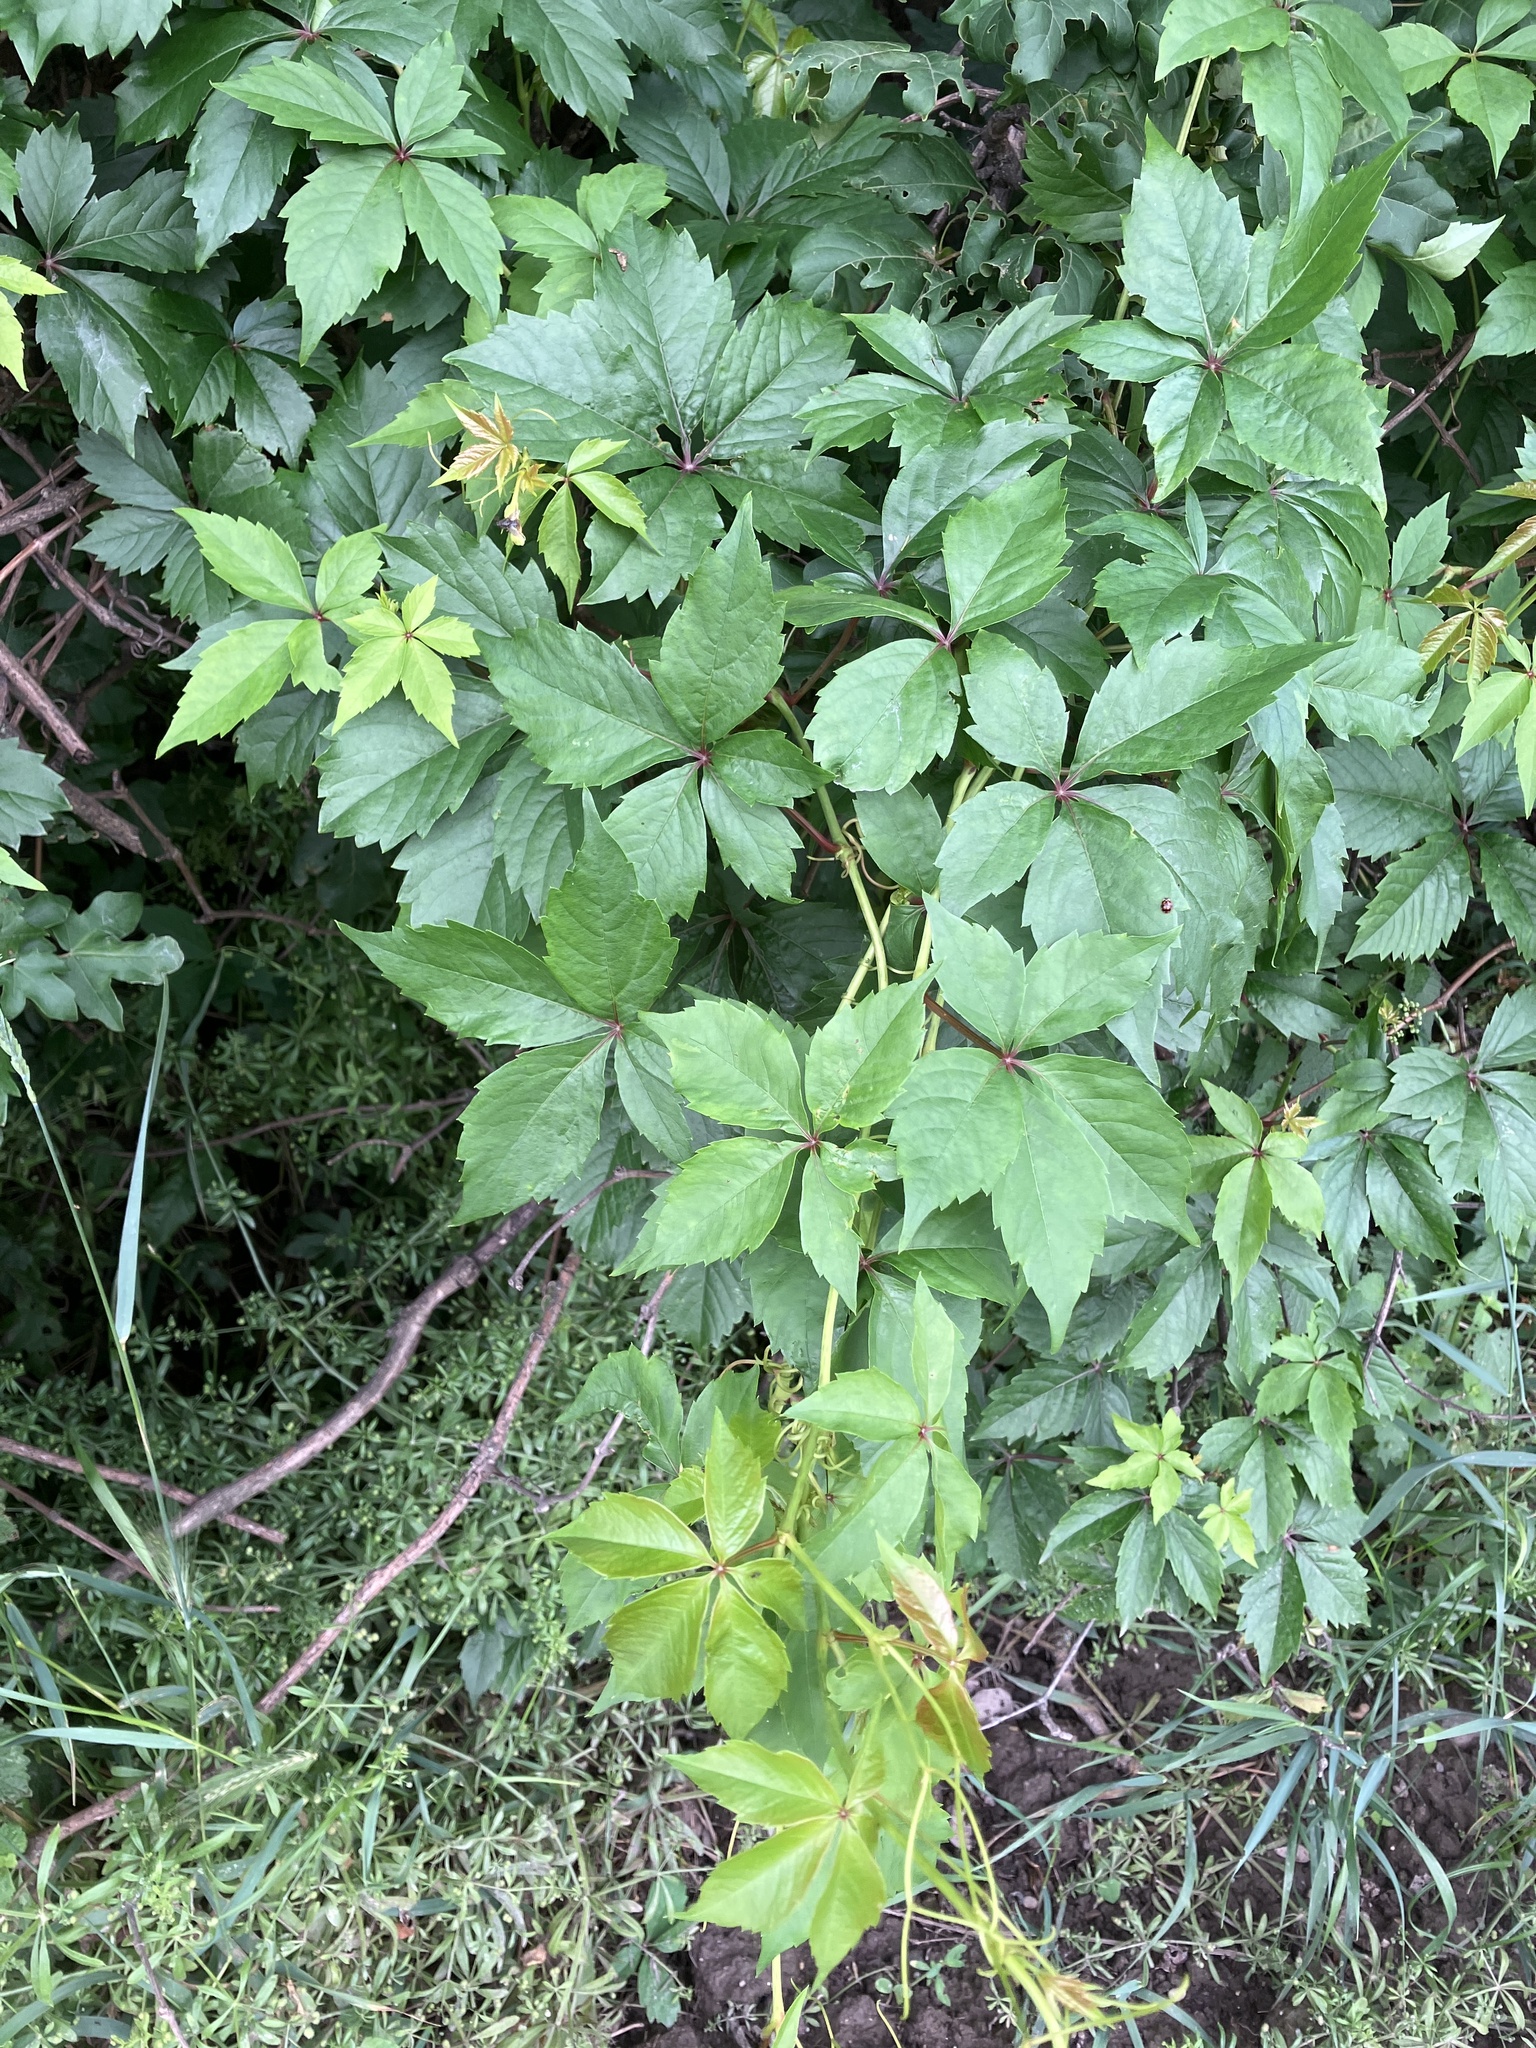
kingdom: Plantae
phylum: Tracheophyta
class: Magnoliopsida
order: Vitales
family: Vitaceae
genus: Parthenocissus
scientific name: Parthenocissus inserta
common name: False virginia-creeper
